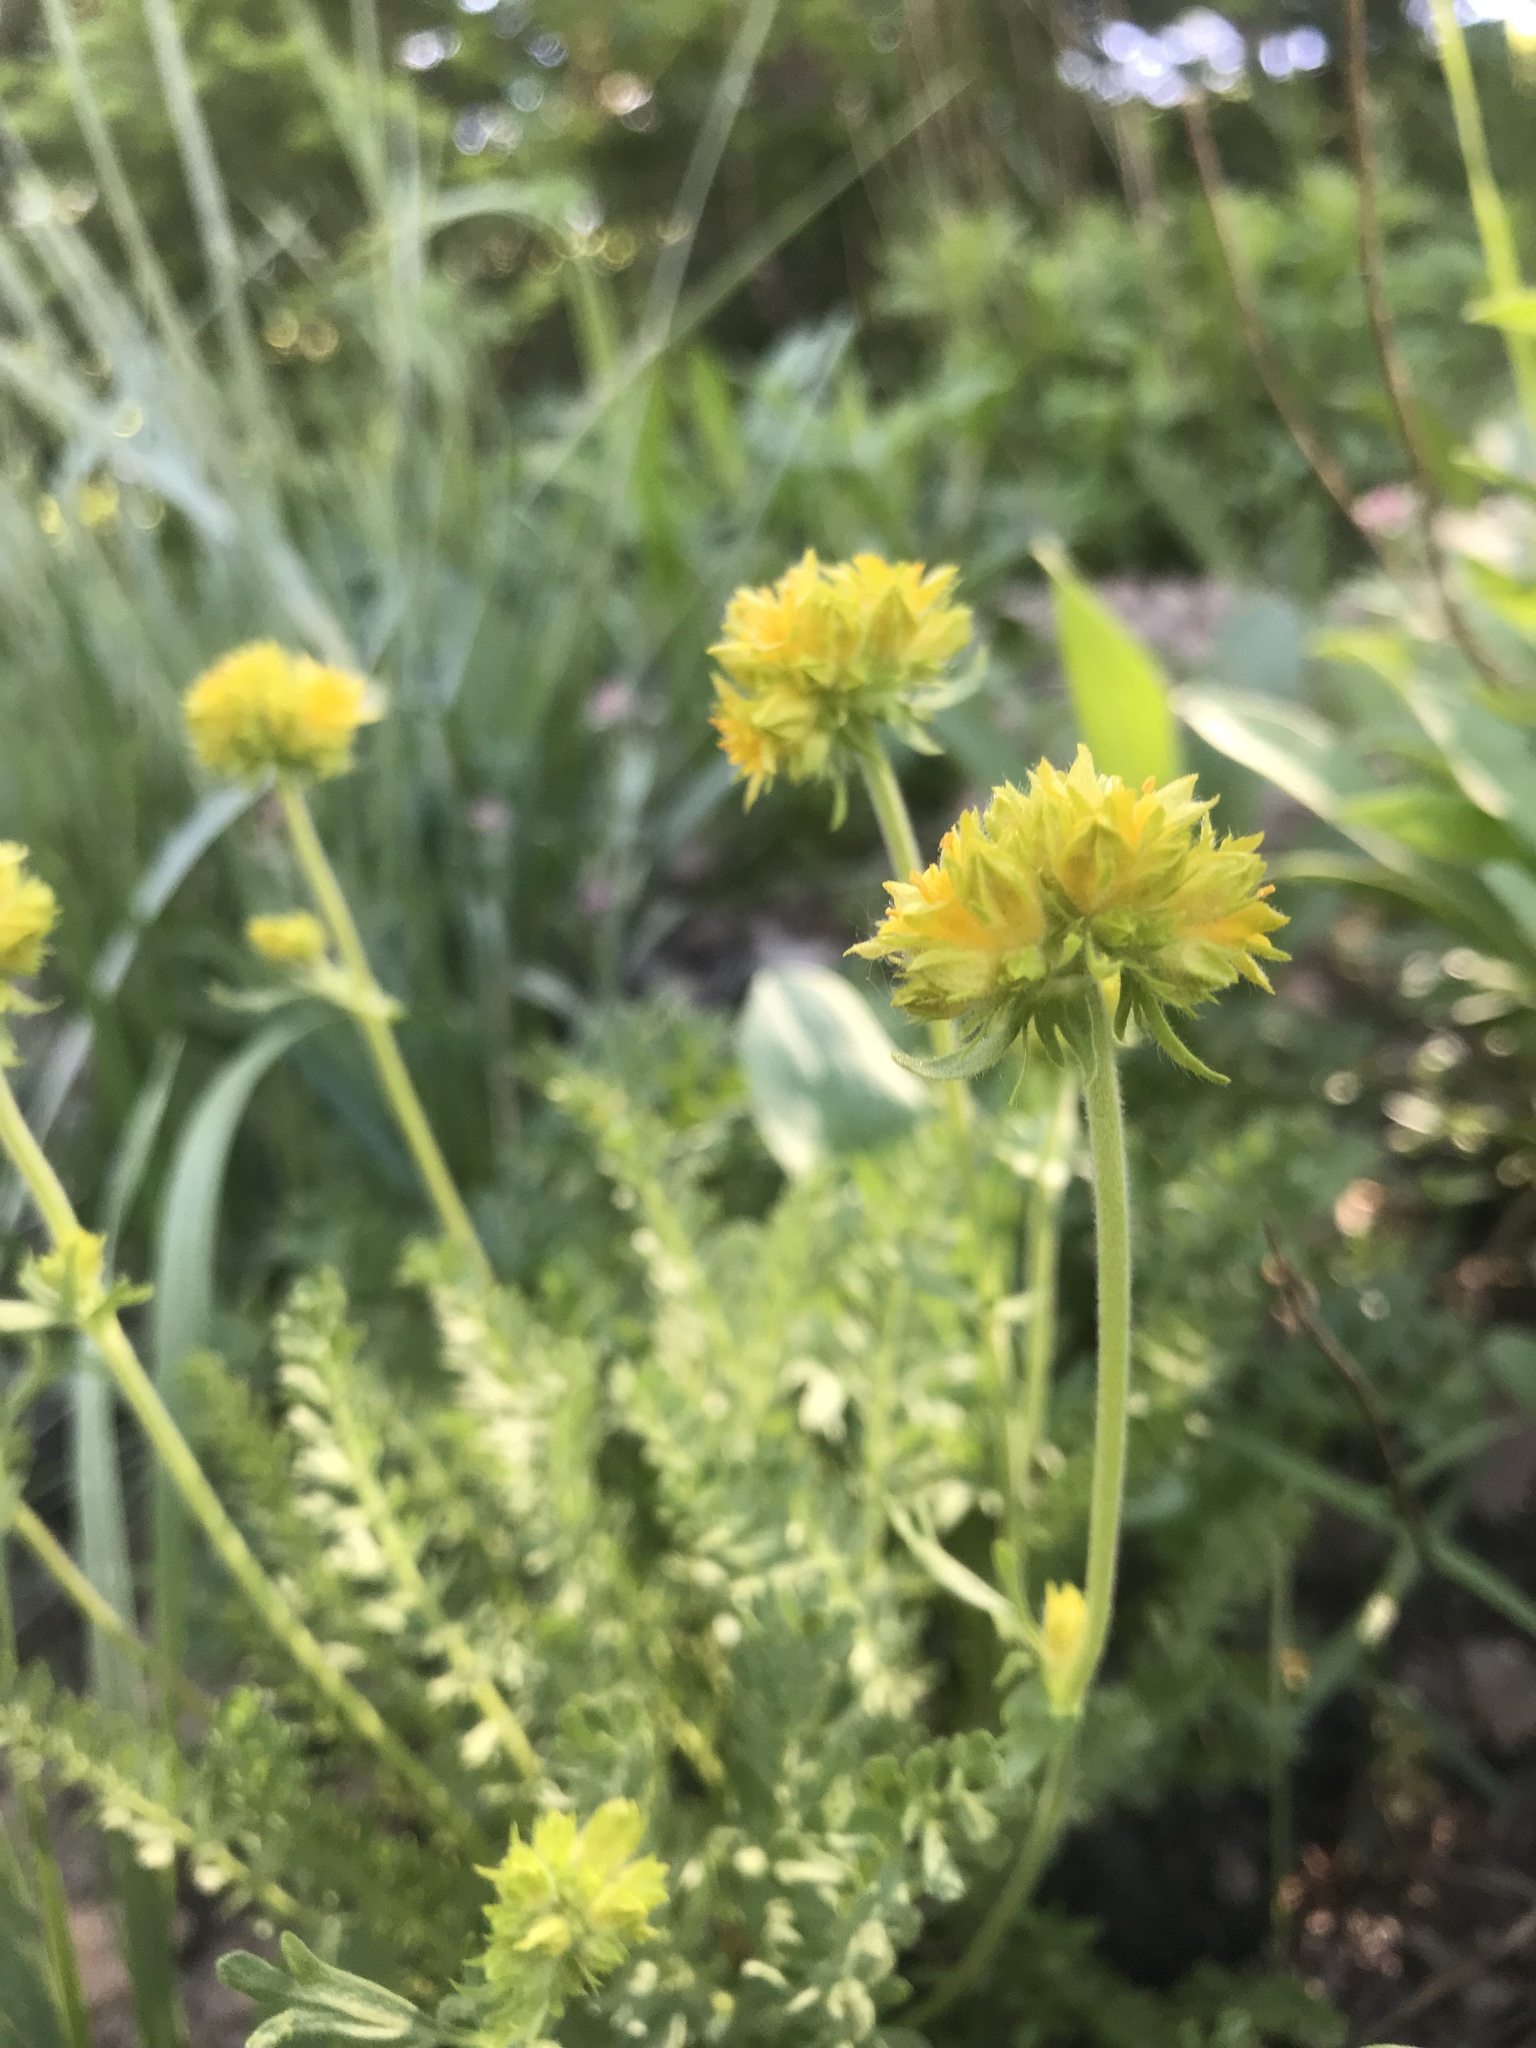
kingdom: Plantae
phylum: Tracheophyta
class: Magnoliopsida
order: Rosales
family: Rosaceae
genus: Potentilla
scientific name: Potentilla gordonii
